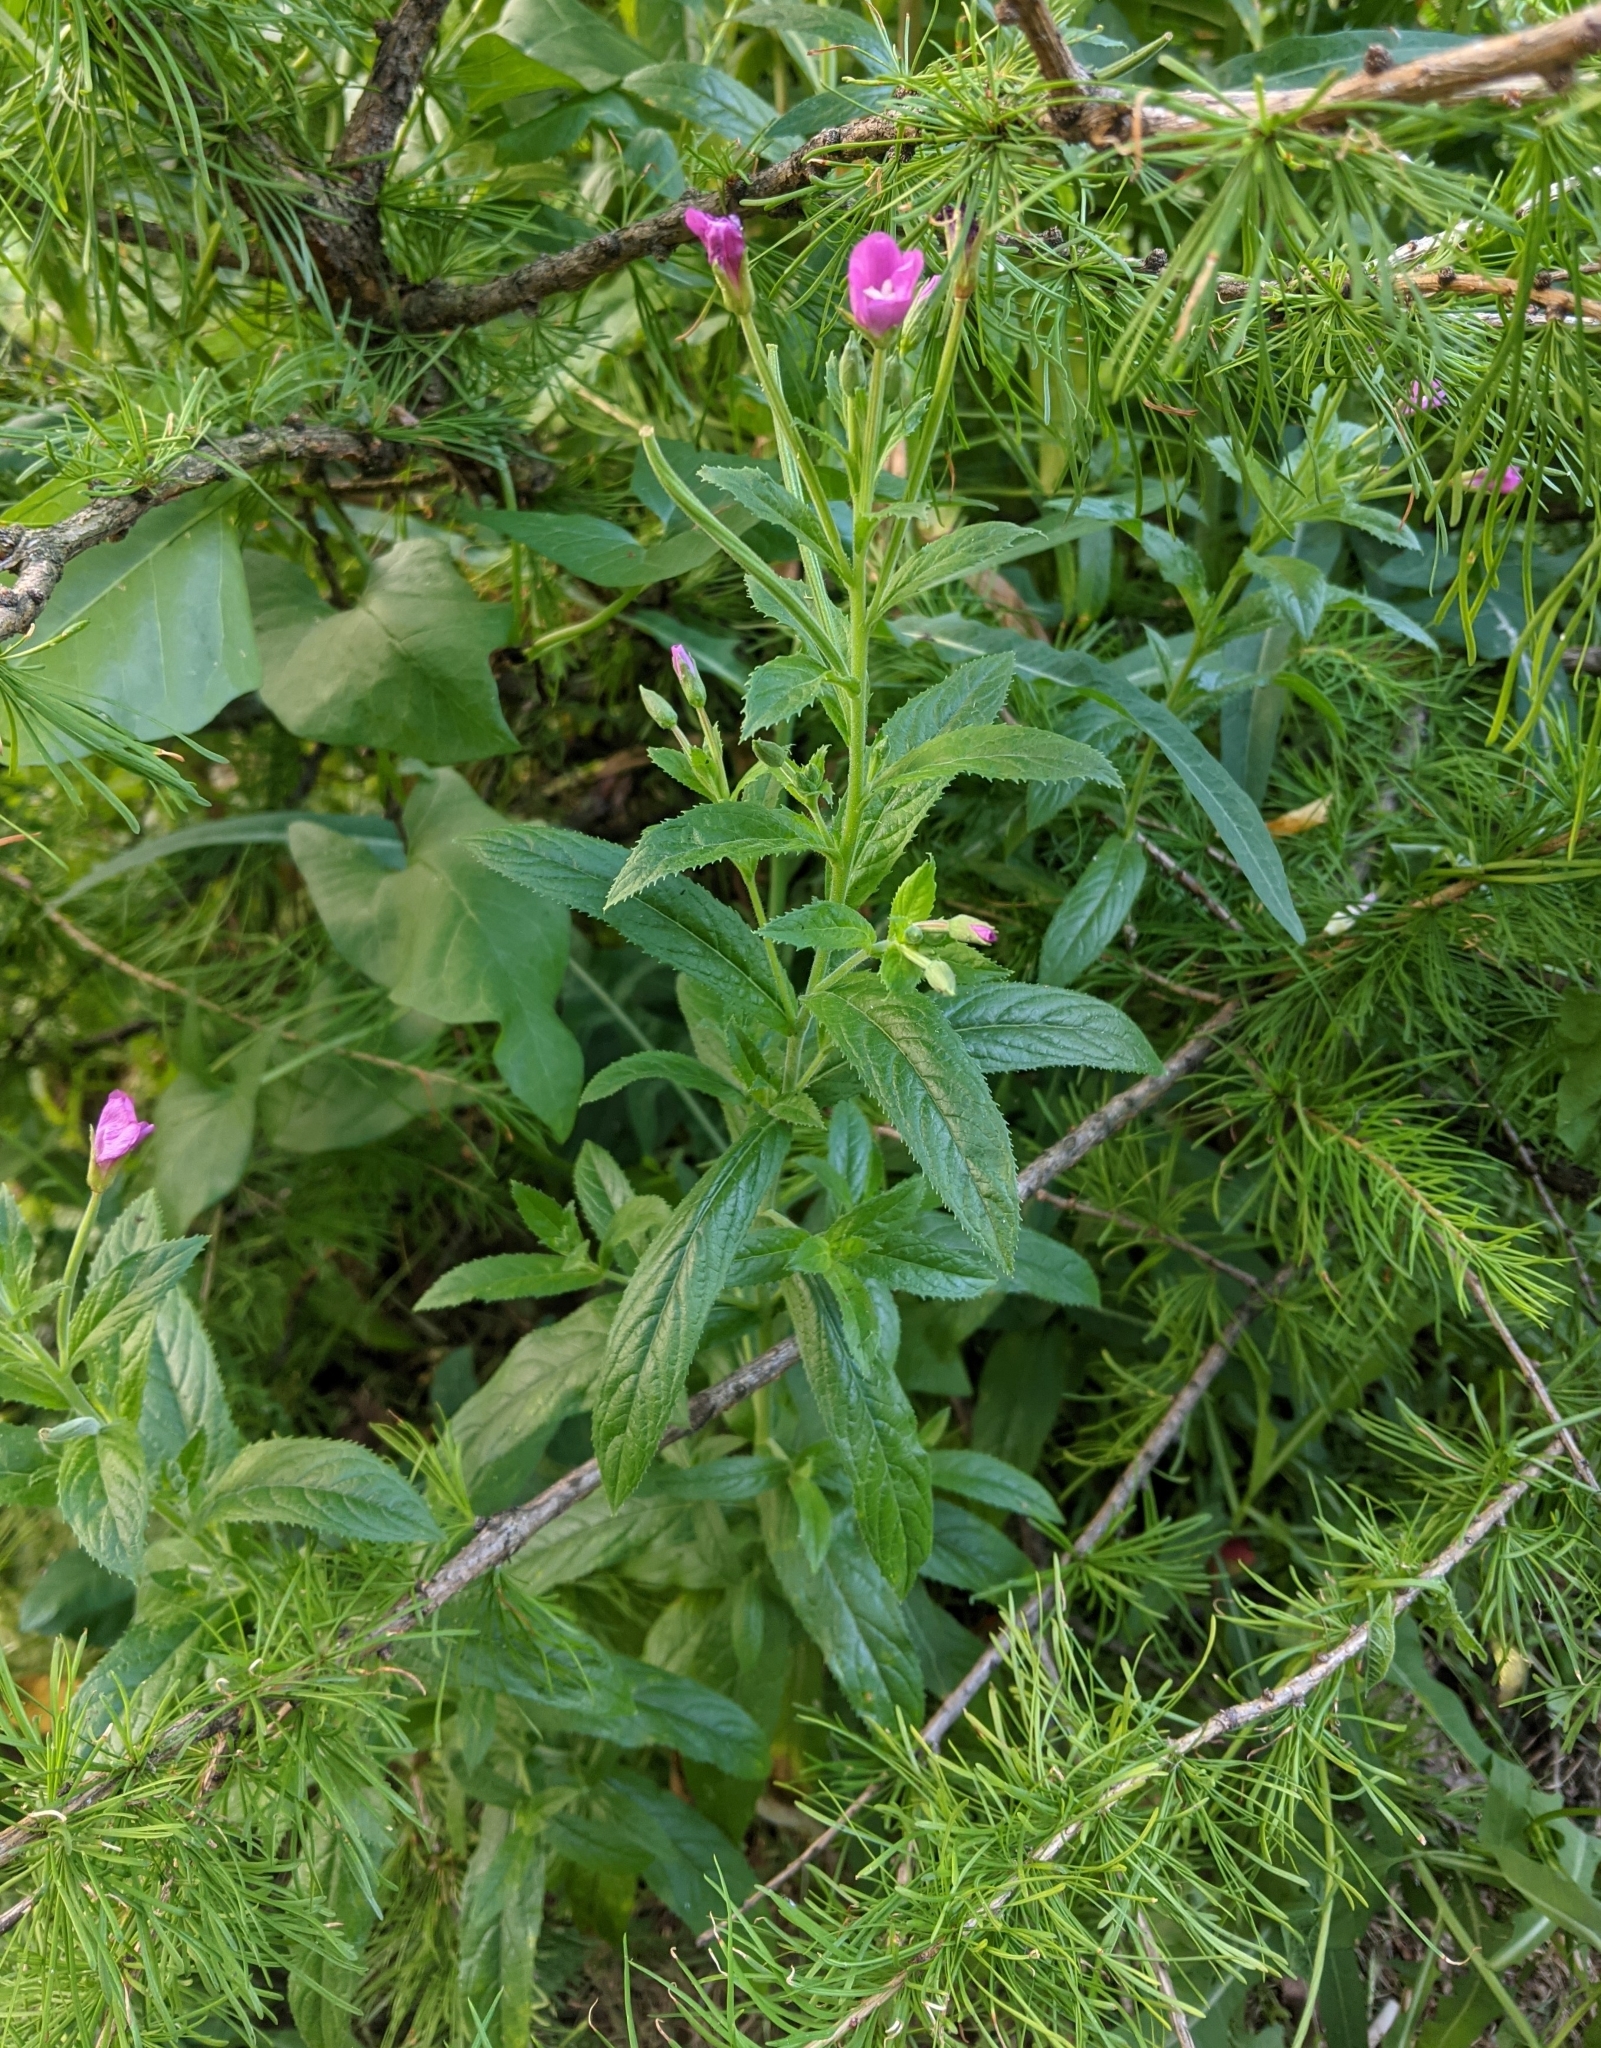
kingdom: Plantae
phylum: Tracheophyta
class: Magnoliopsida
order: Myrtales
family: Onagraceae
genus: Epilobium
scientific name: Epilobium hirsutum
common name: Great willowherb
